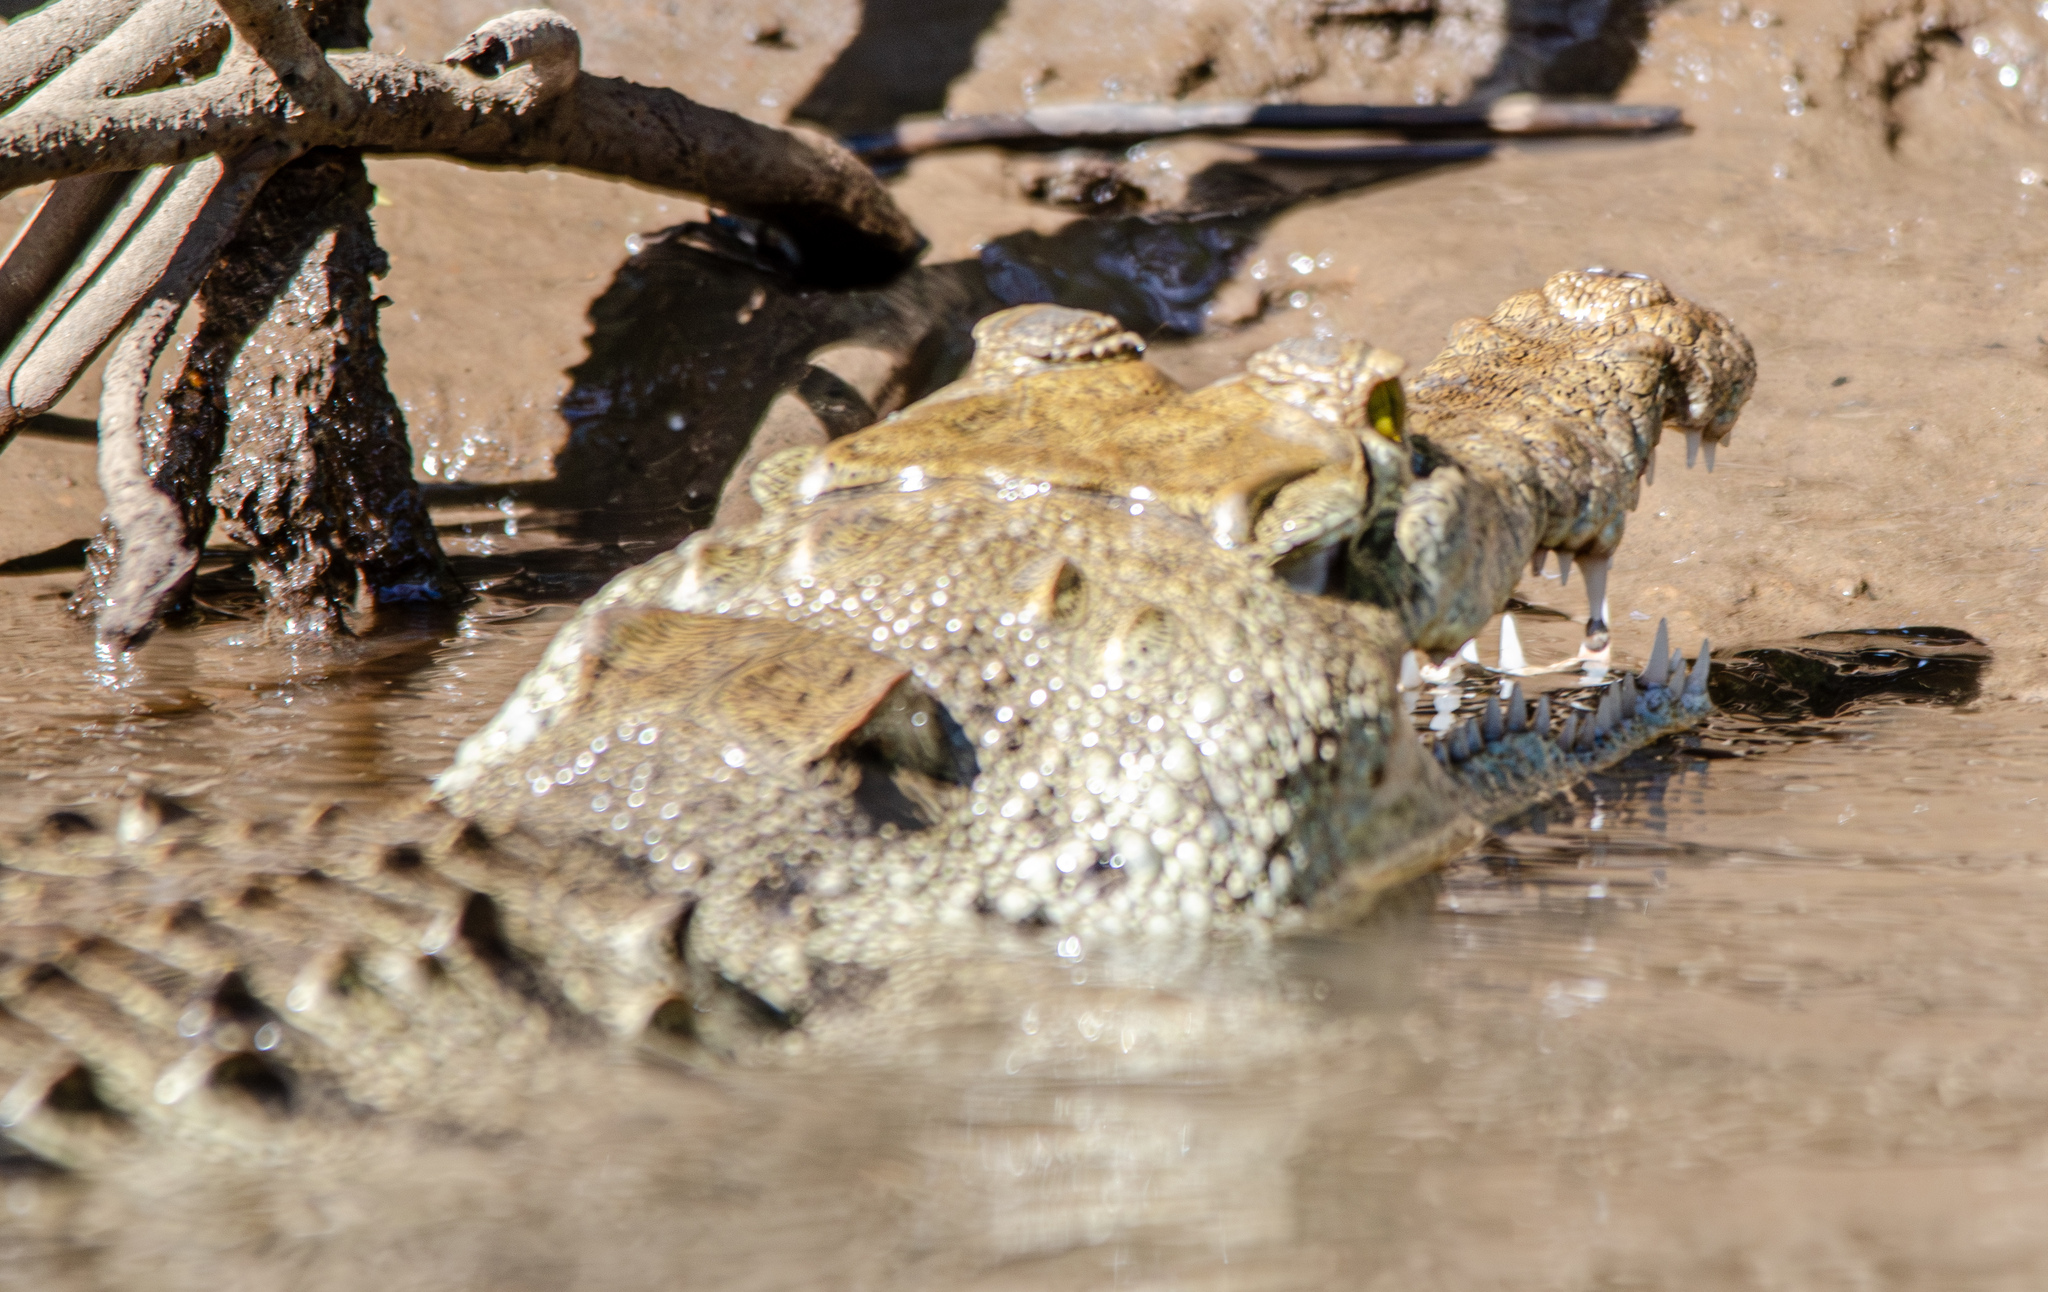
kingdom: Animalia
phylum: Chordata
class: Crocodylia
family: Crocodylidae
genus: Crocodylus
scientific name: Crocodylus acutus
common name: American crocodile
